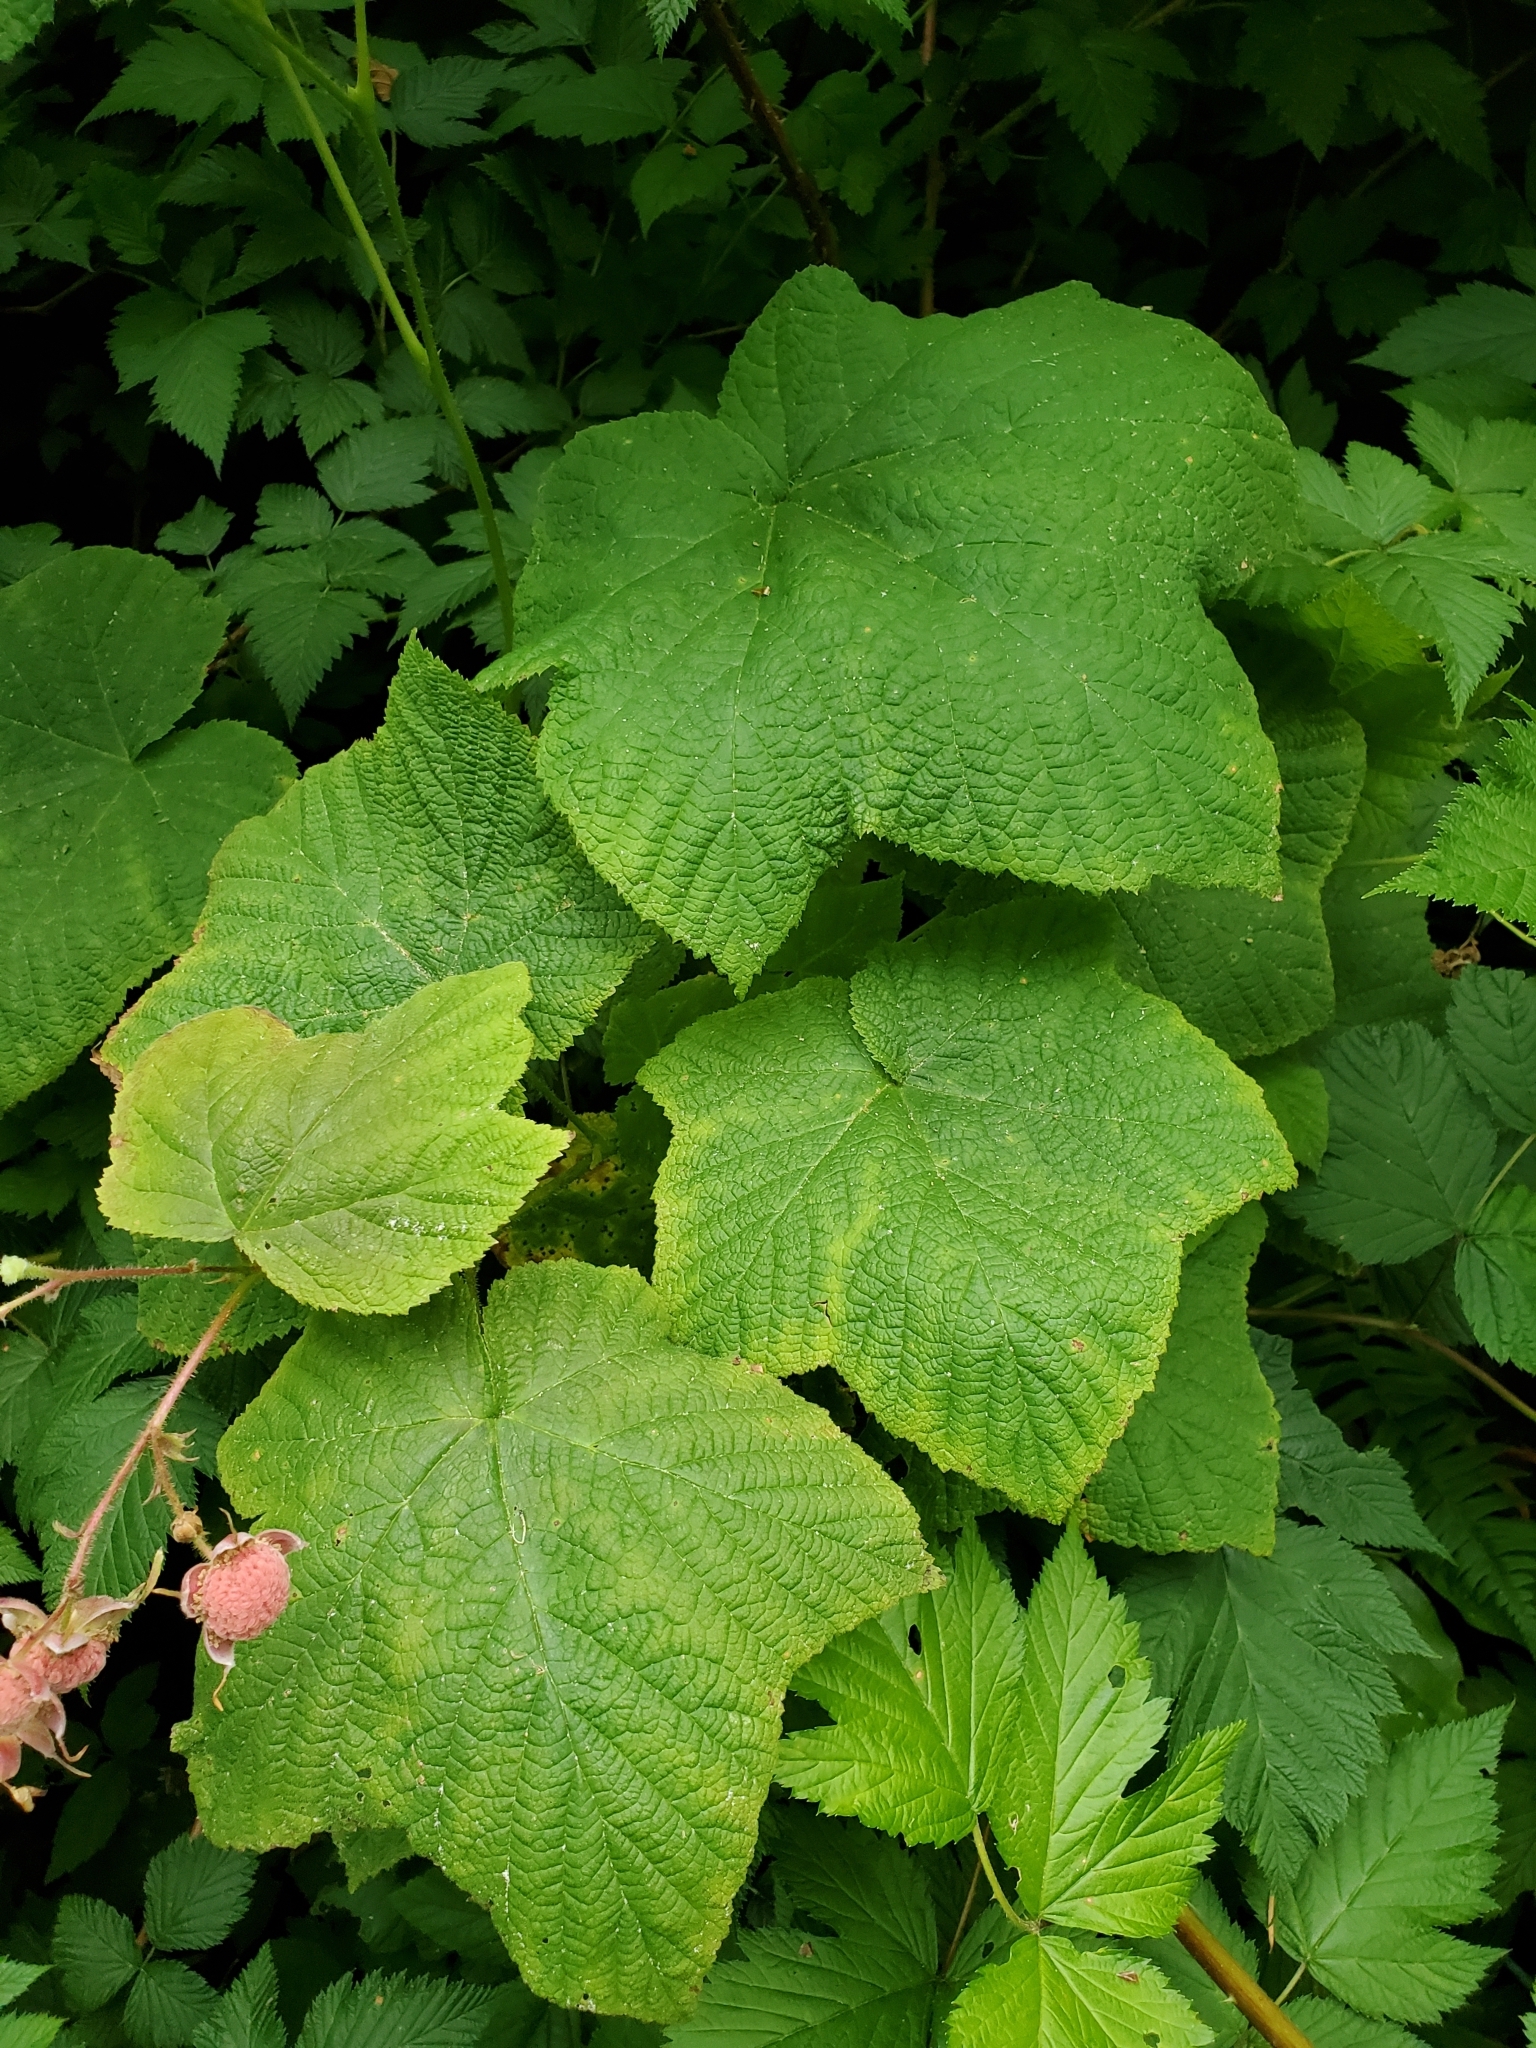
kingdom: Plantae
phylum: Tracheophyta
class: Magnoliopsida
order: Rosales
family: Rosaceae
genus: Rubus
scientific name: Rubus parviflorus
